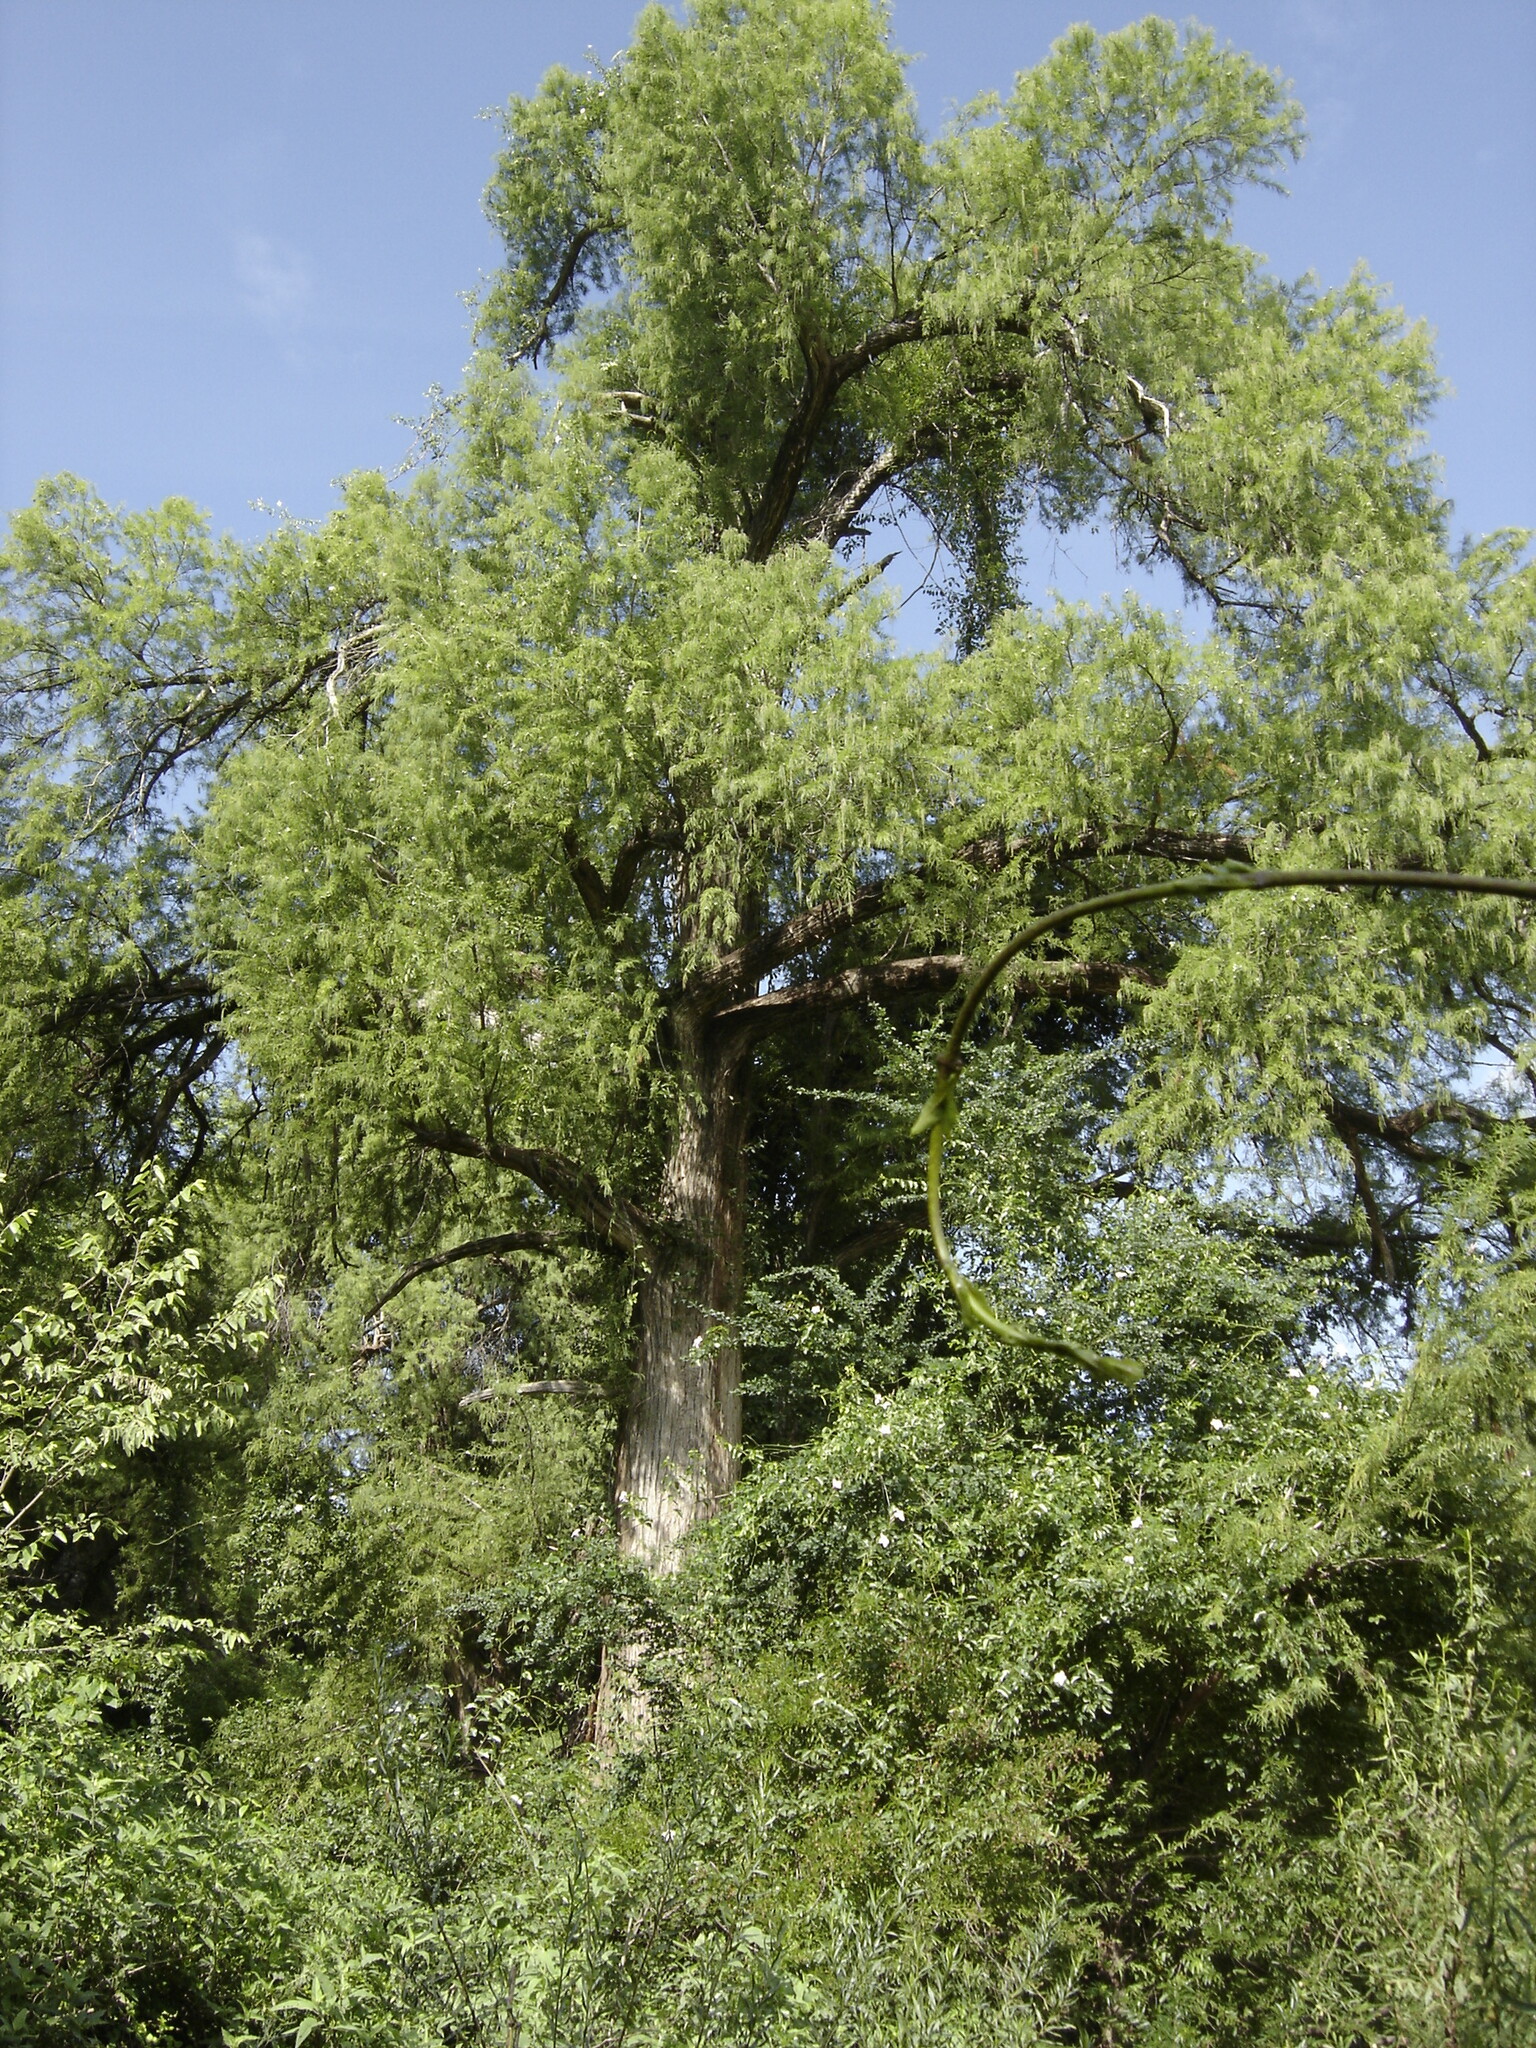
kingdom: Plantae
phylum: Tracheophyta
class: Pinopsida
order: Pinales
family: Cupressaceae
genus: Taxodium
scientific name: Taxodium mucronatum
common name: Montezume bald cypress
